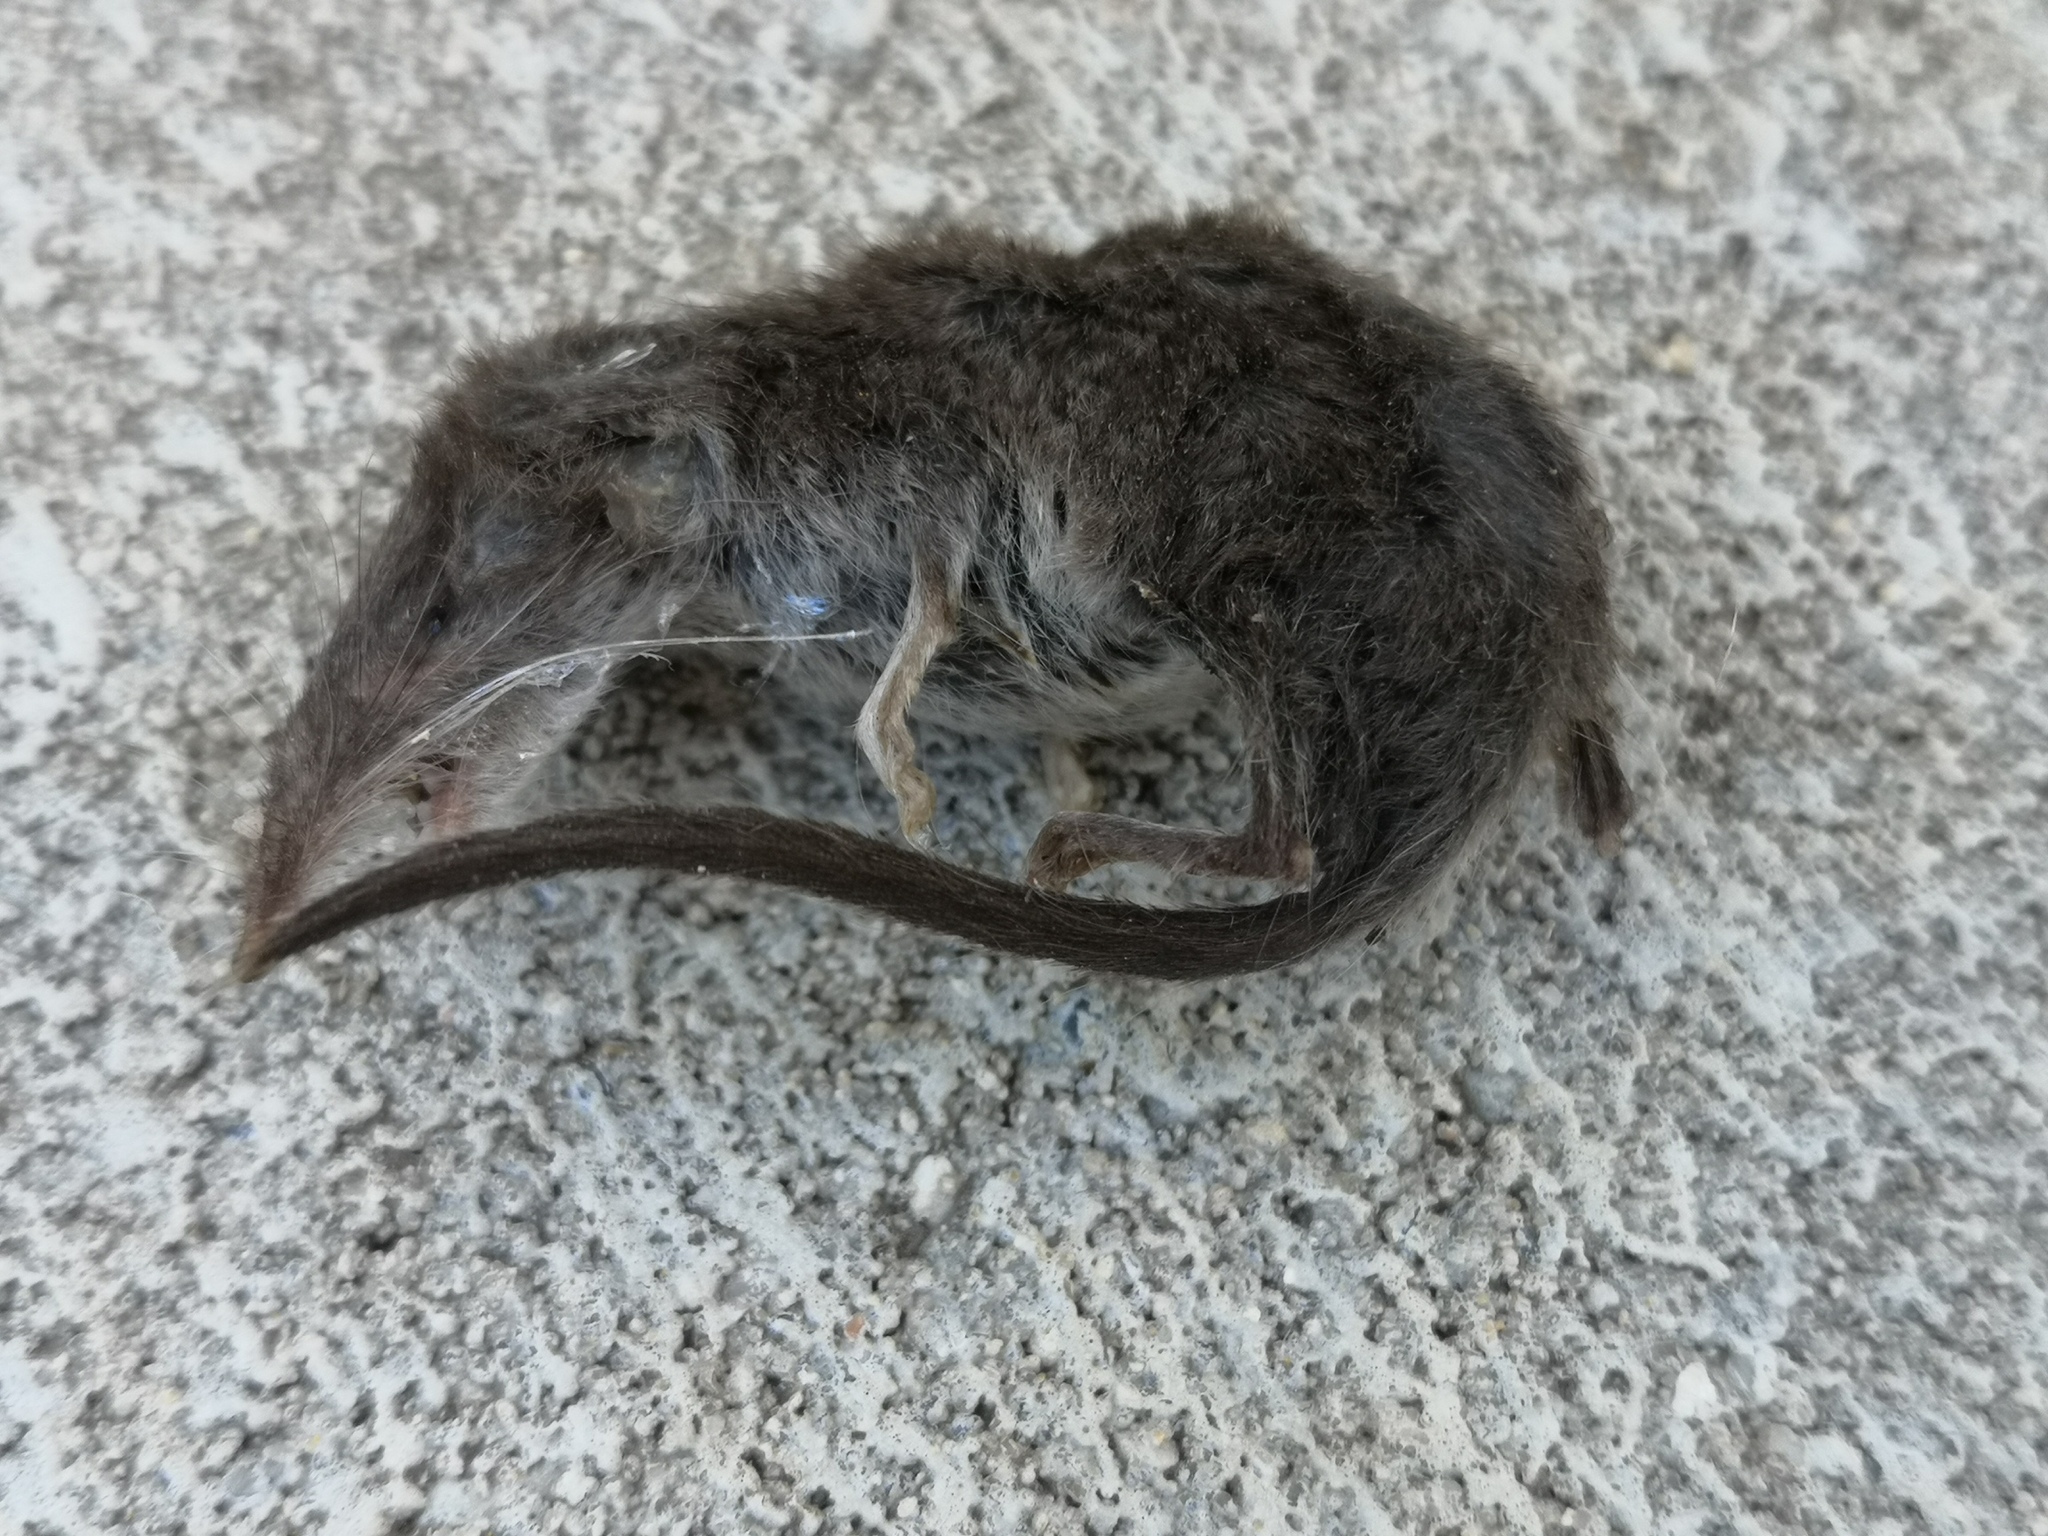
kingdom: Animalia
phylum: Chordata
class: Mammalia
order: Soricomorpha
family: Soricidae
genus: Crocidura
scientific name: Crocidura suaveolens
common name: Lesser white-toothed shrew
